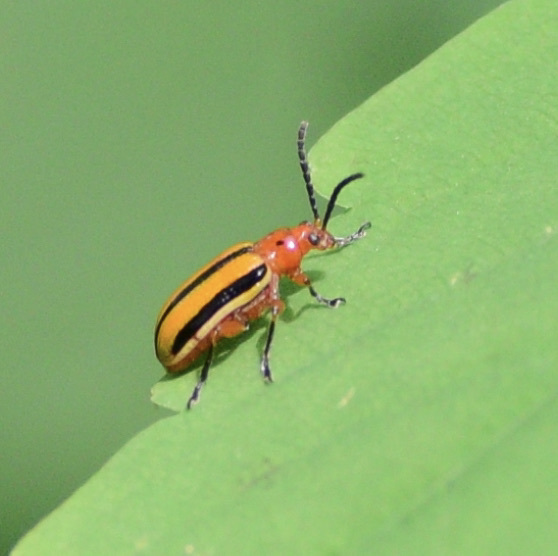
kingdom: Animalia
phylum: Arthropoda
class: Insecta
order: Coleoptera
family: Chrysomelidae
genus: Lema
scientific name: Lema daturaphila
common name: Leaf beetle
